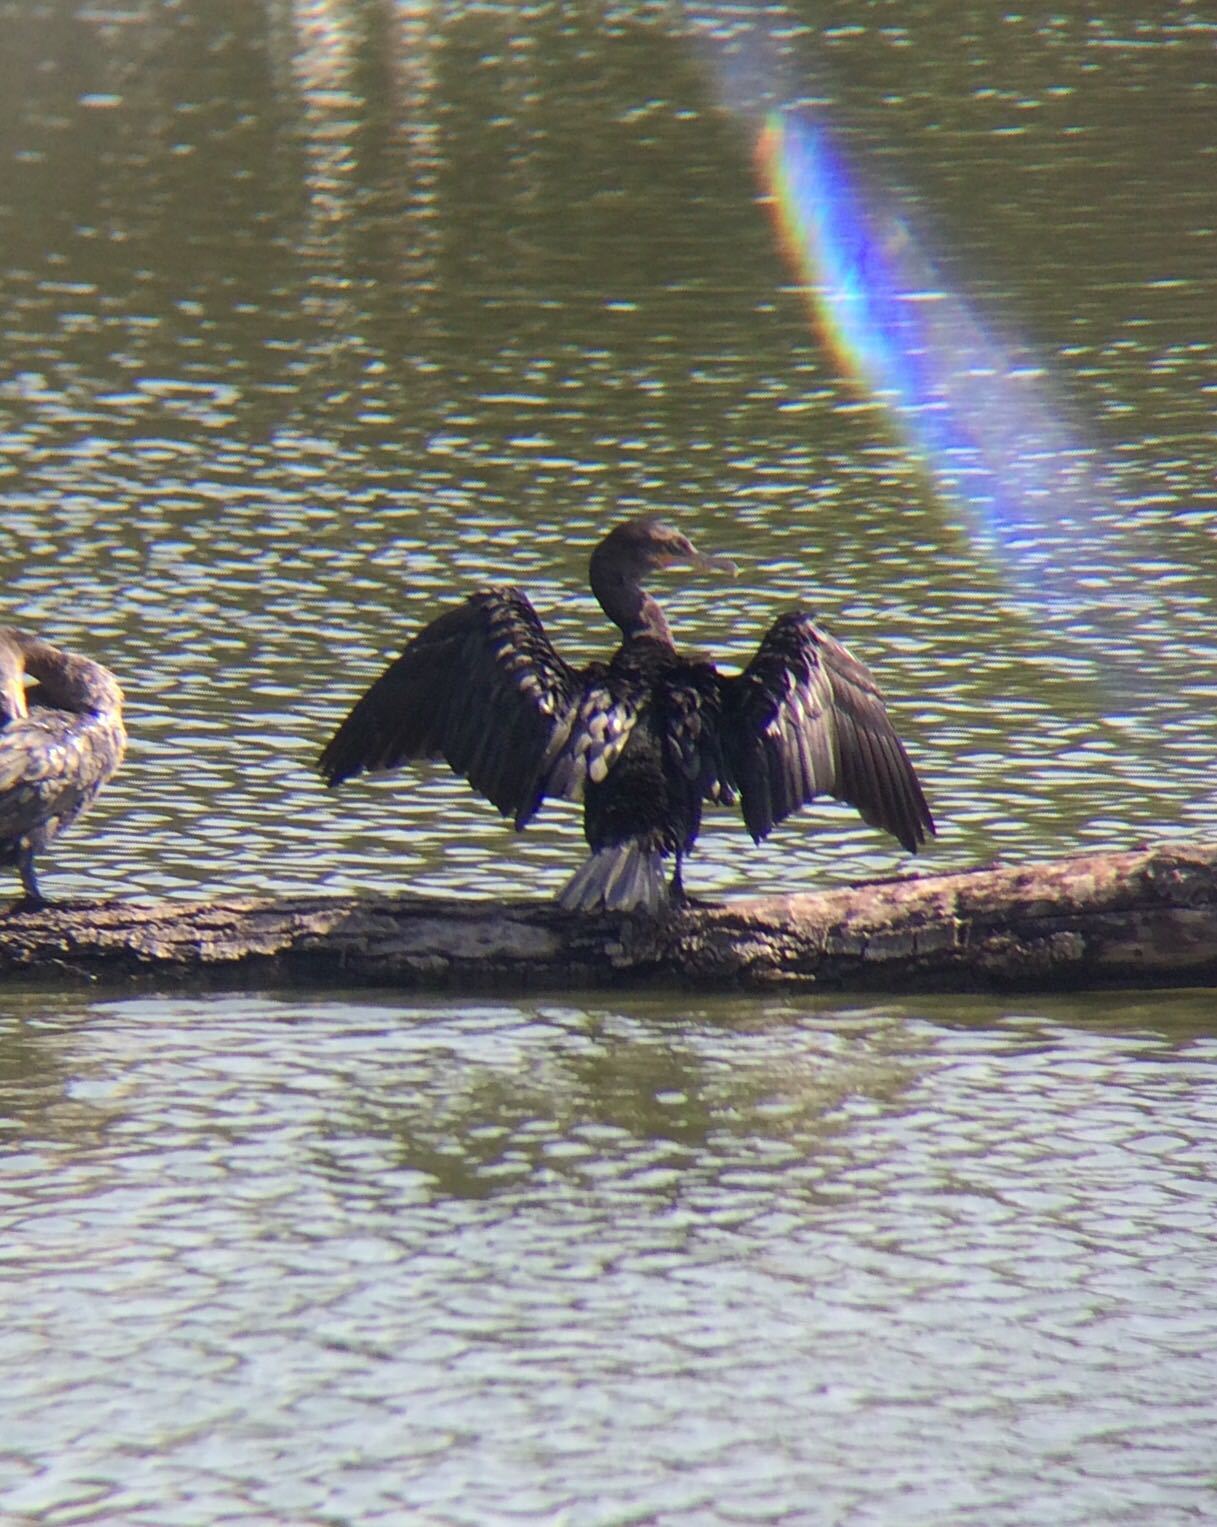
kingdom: Animalia
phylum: Chordata
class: Aves
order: Suliformes
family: Phalacrocoracidae
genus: Phalacrocorax
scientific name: Phalacrocorax brasilianus
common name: Neotropic cormorant
